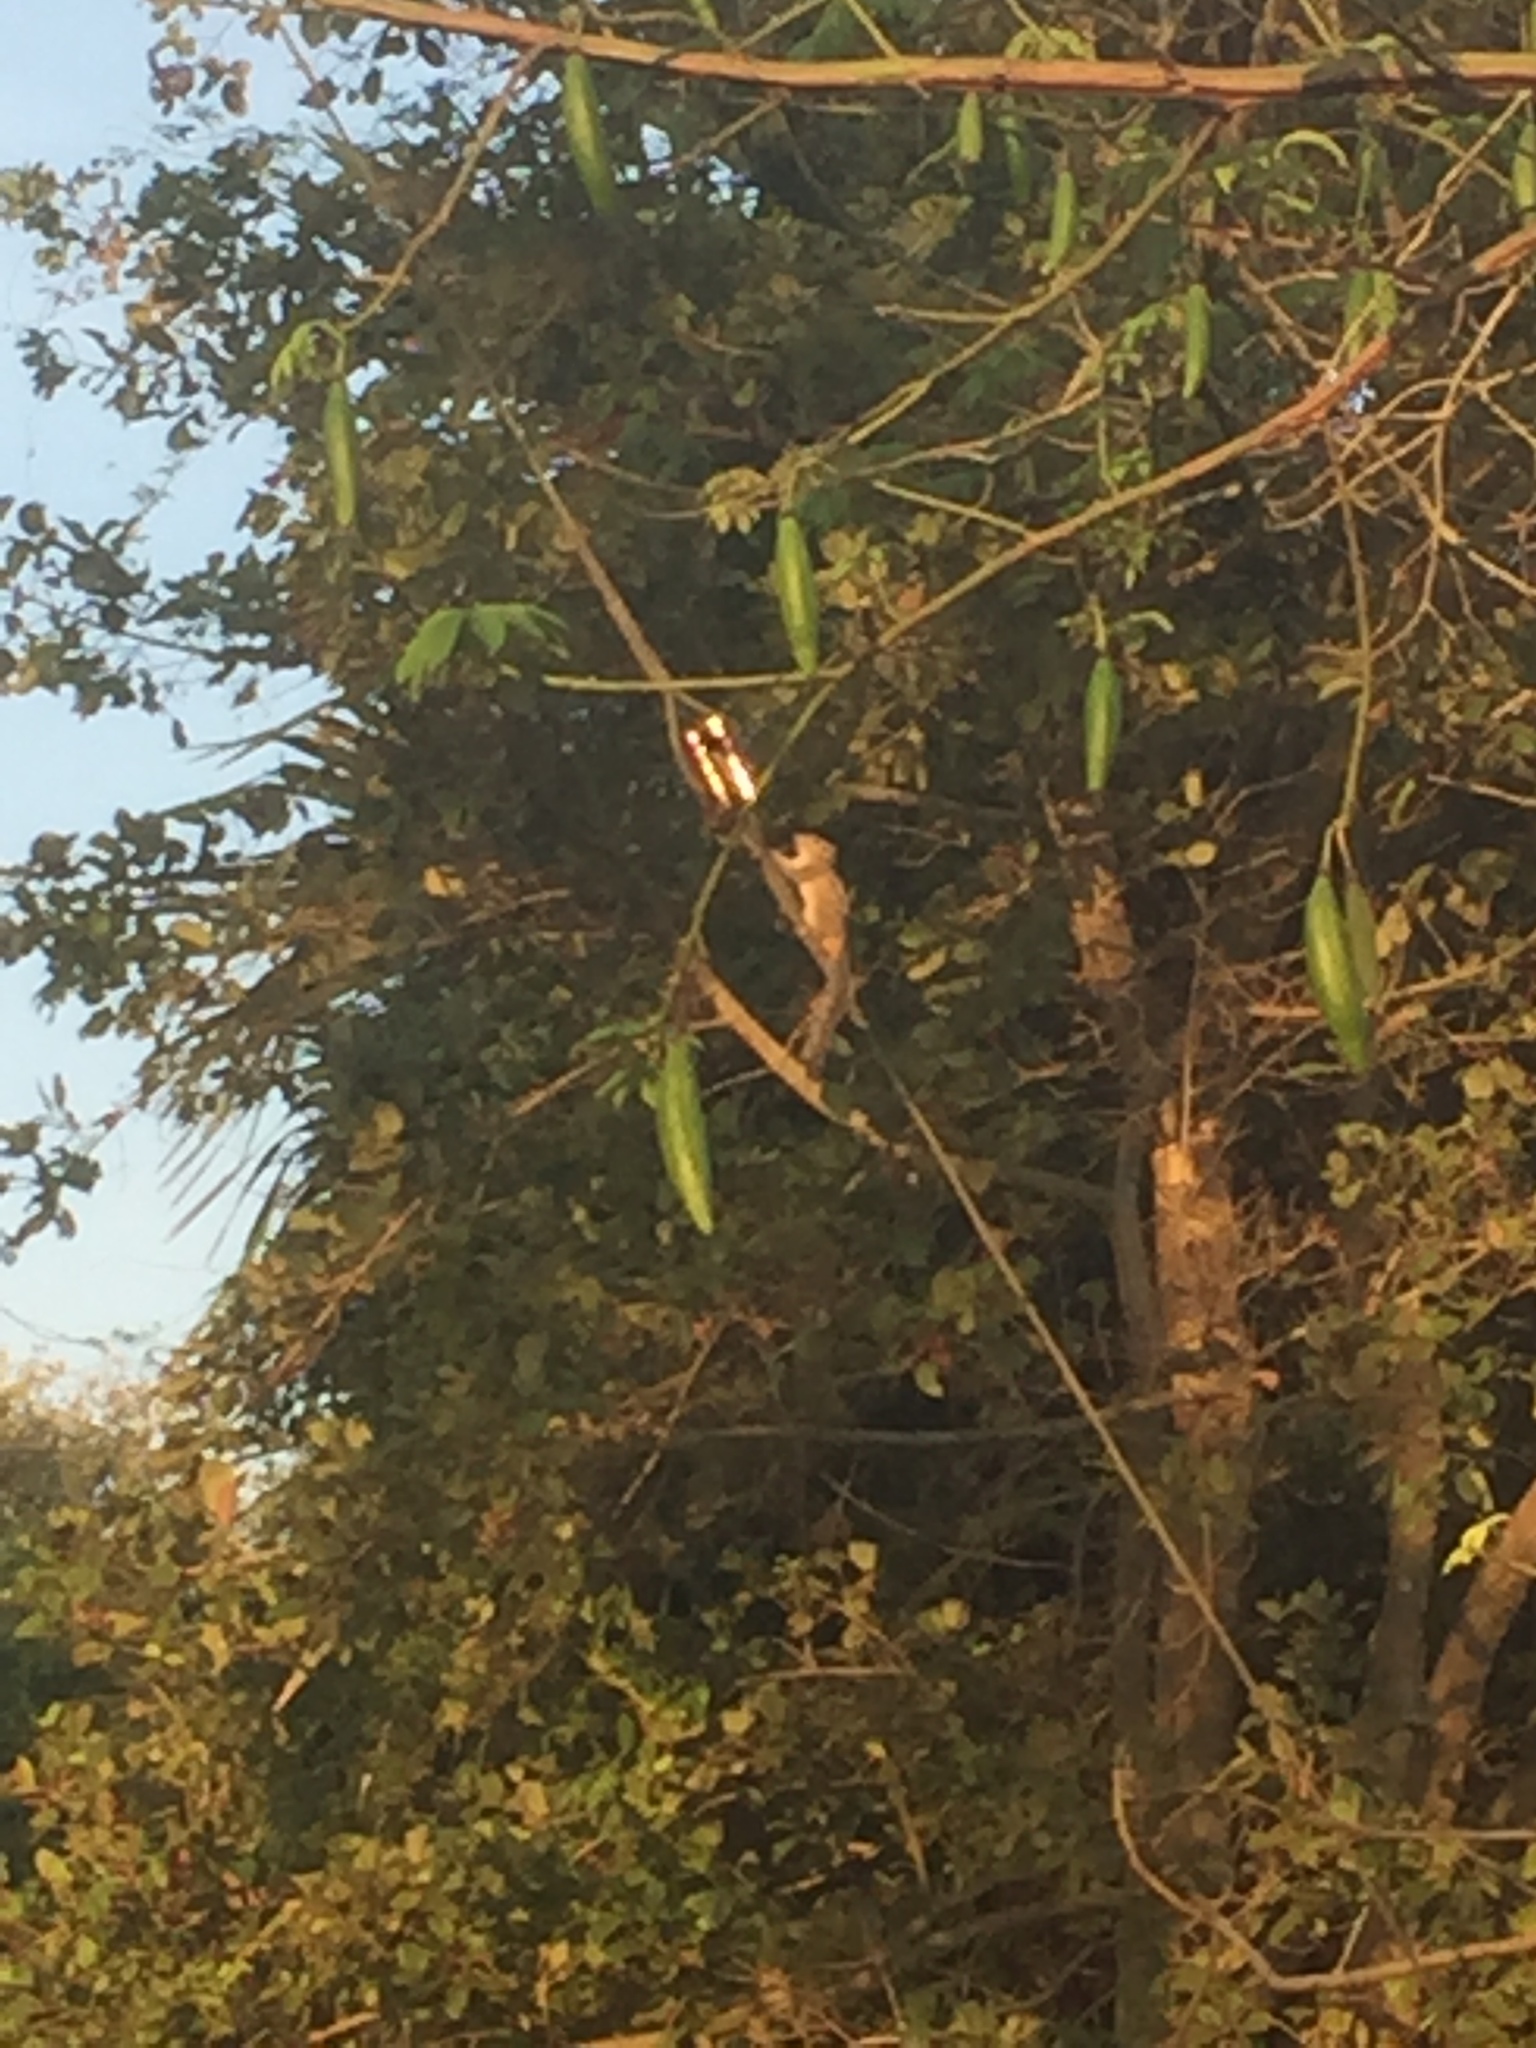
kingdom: Animalia
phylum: Chordata
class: Mammalia
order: Rodentia
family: Sciuridae
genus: Funambulus
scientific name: Funambulus palmarum
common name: Indian palm squirrel
